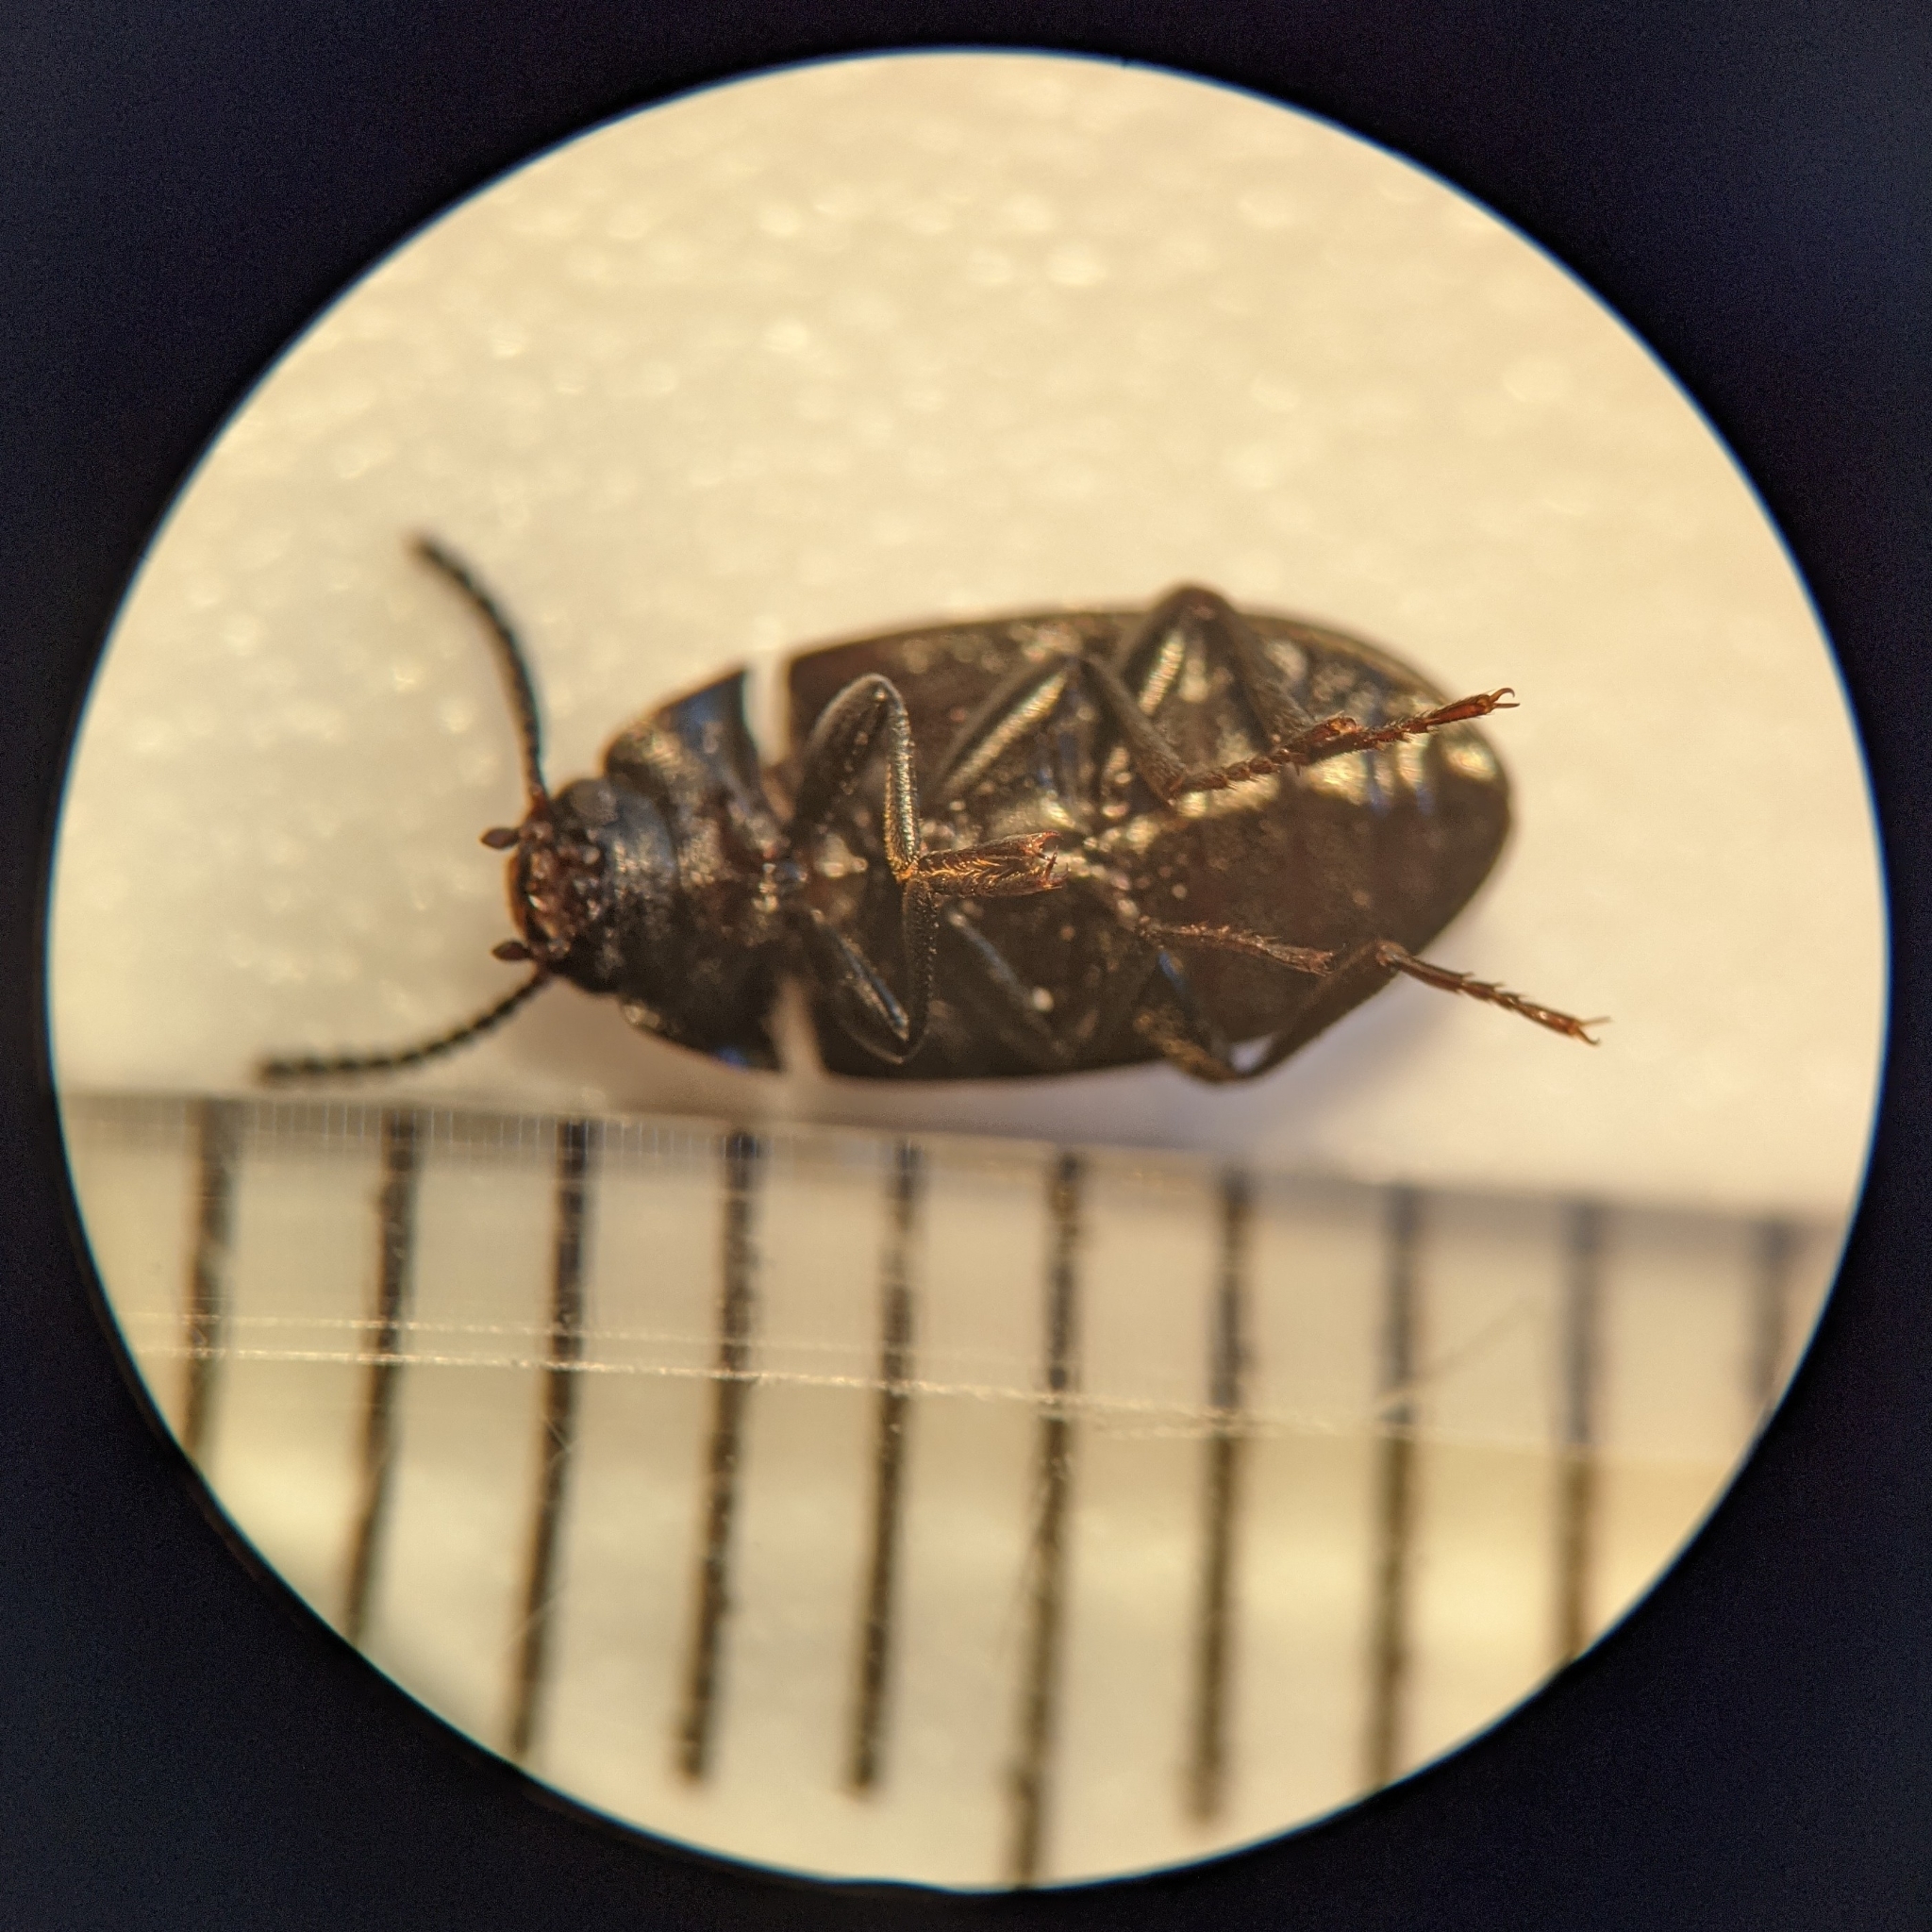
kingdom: Animalia
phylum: Arthropoda
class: Insecta
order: Coleoptera
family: Tenebrionidae
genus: Platydema
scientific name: Platydema elliptica
